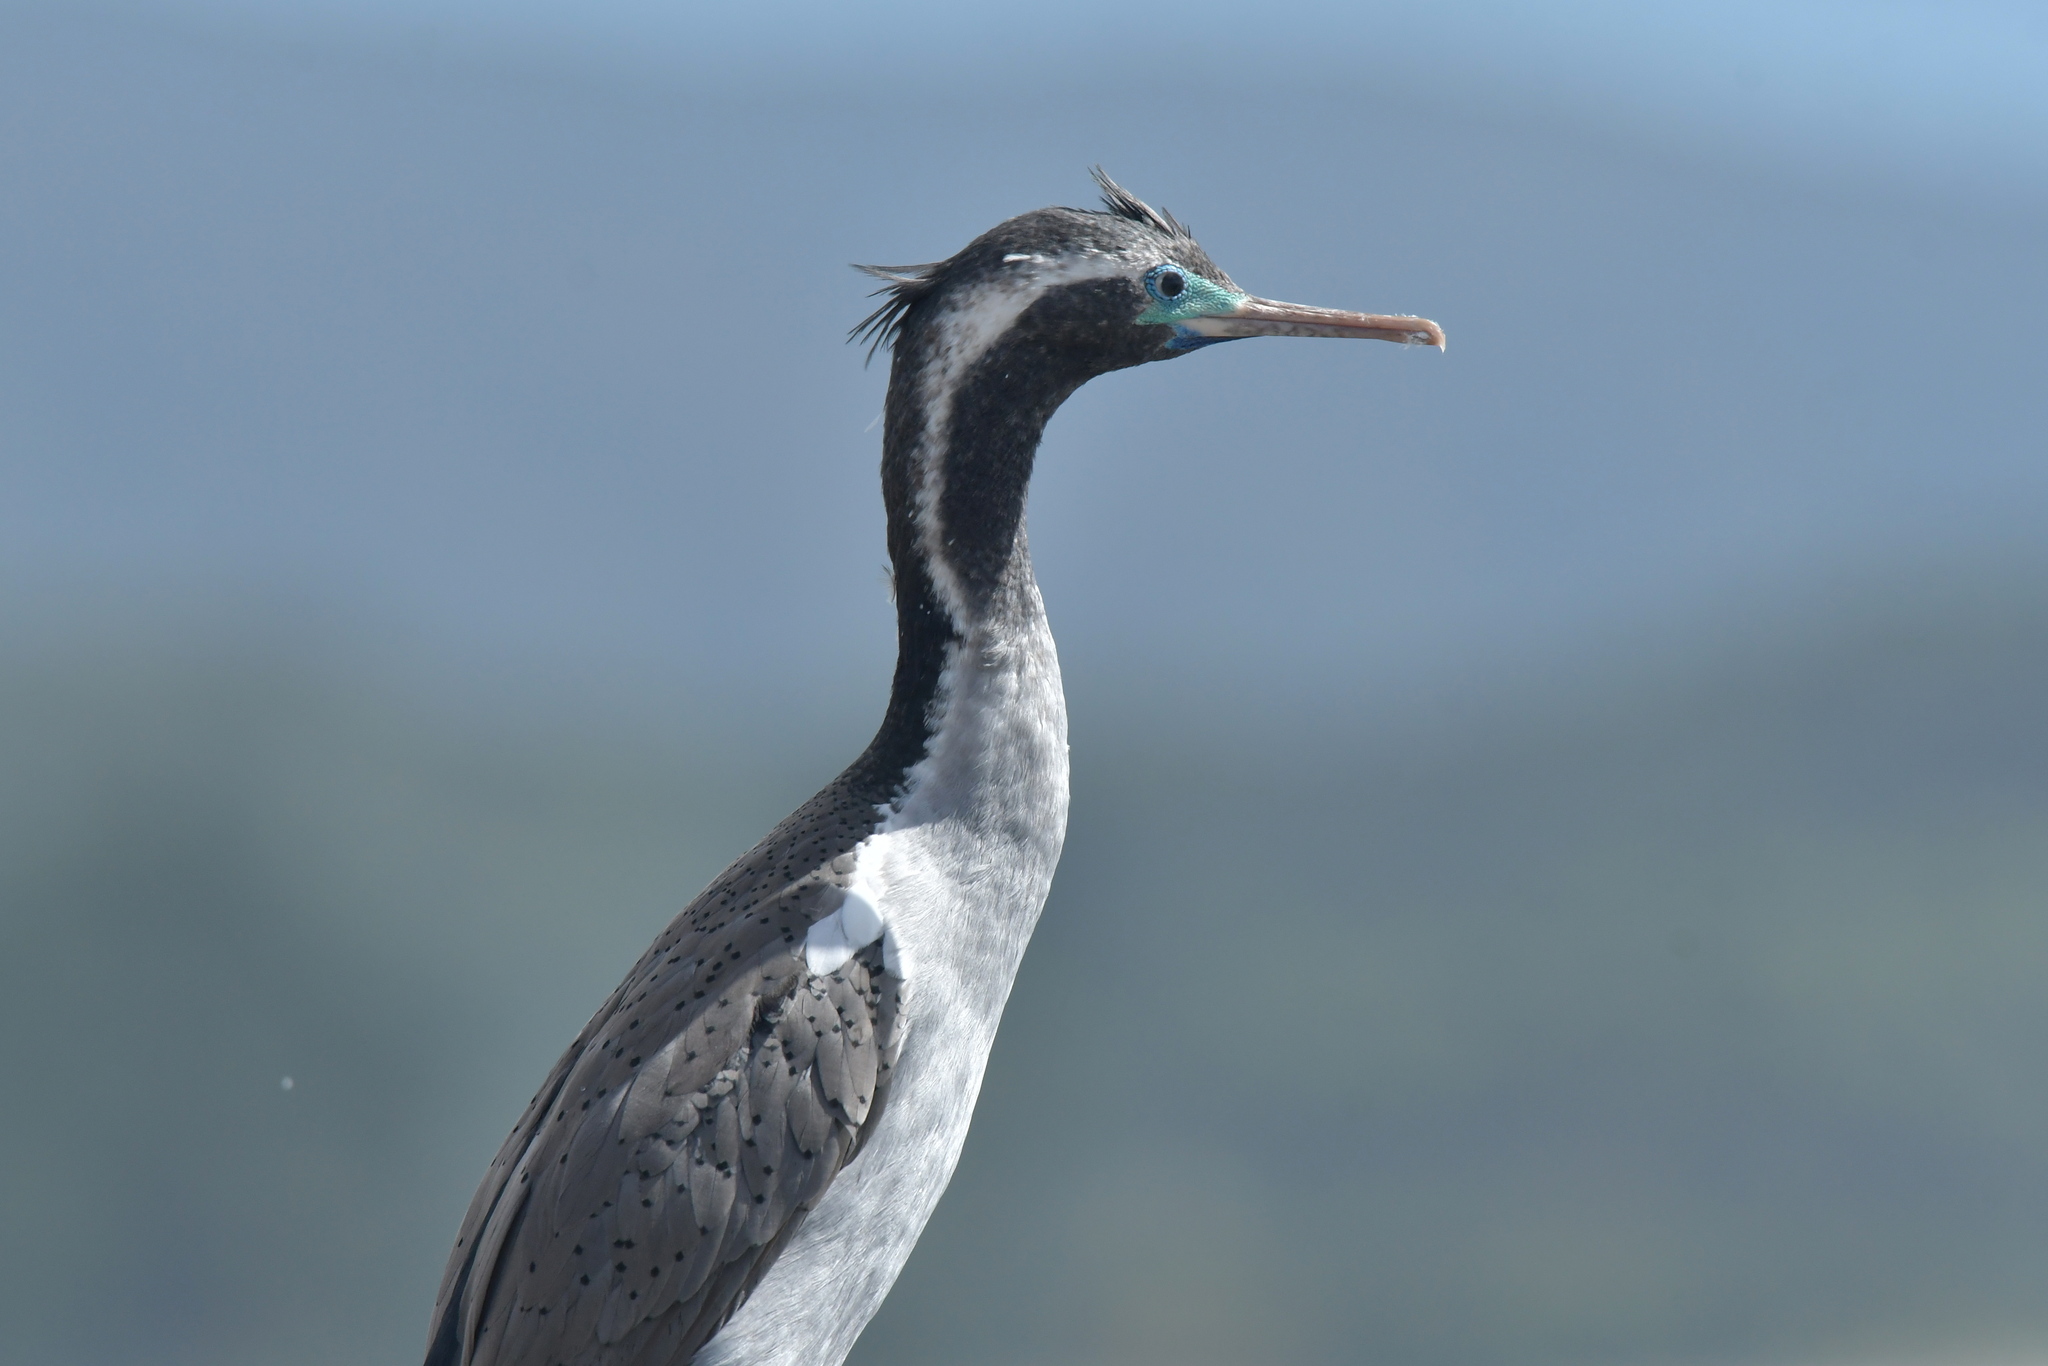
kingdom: Animalia
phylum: Chordata
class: Aves
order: Suliformes
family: Phalacrocoracidae
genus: Phalacrocorax
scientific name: Phalacrocorax punctatus
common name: Spotted shag
